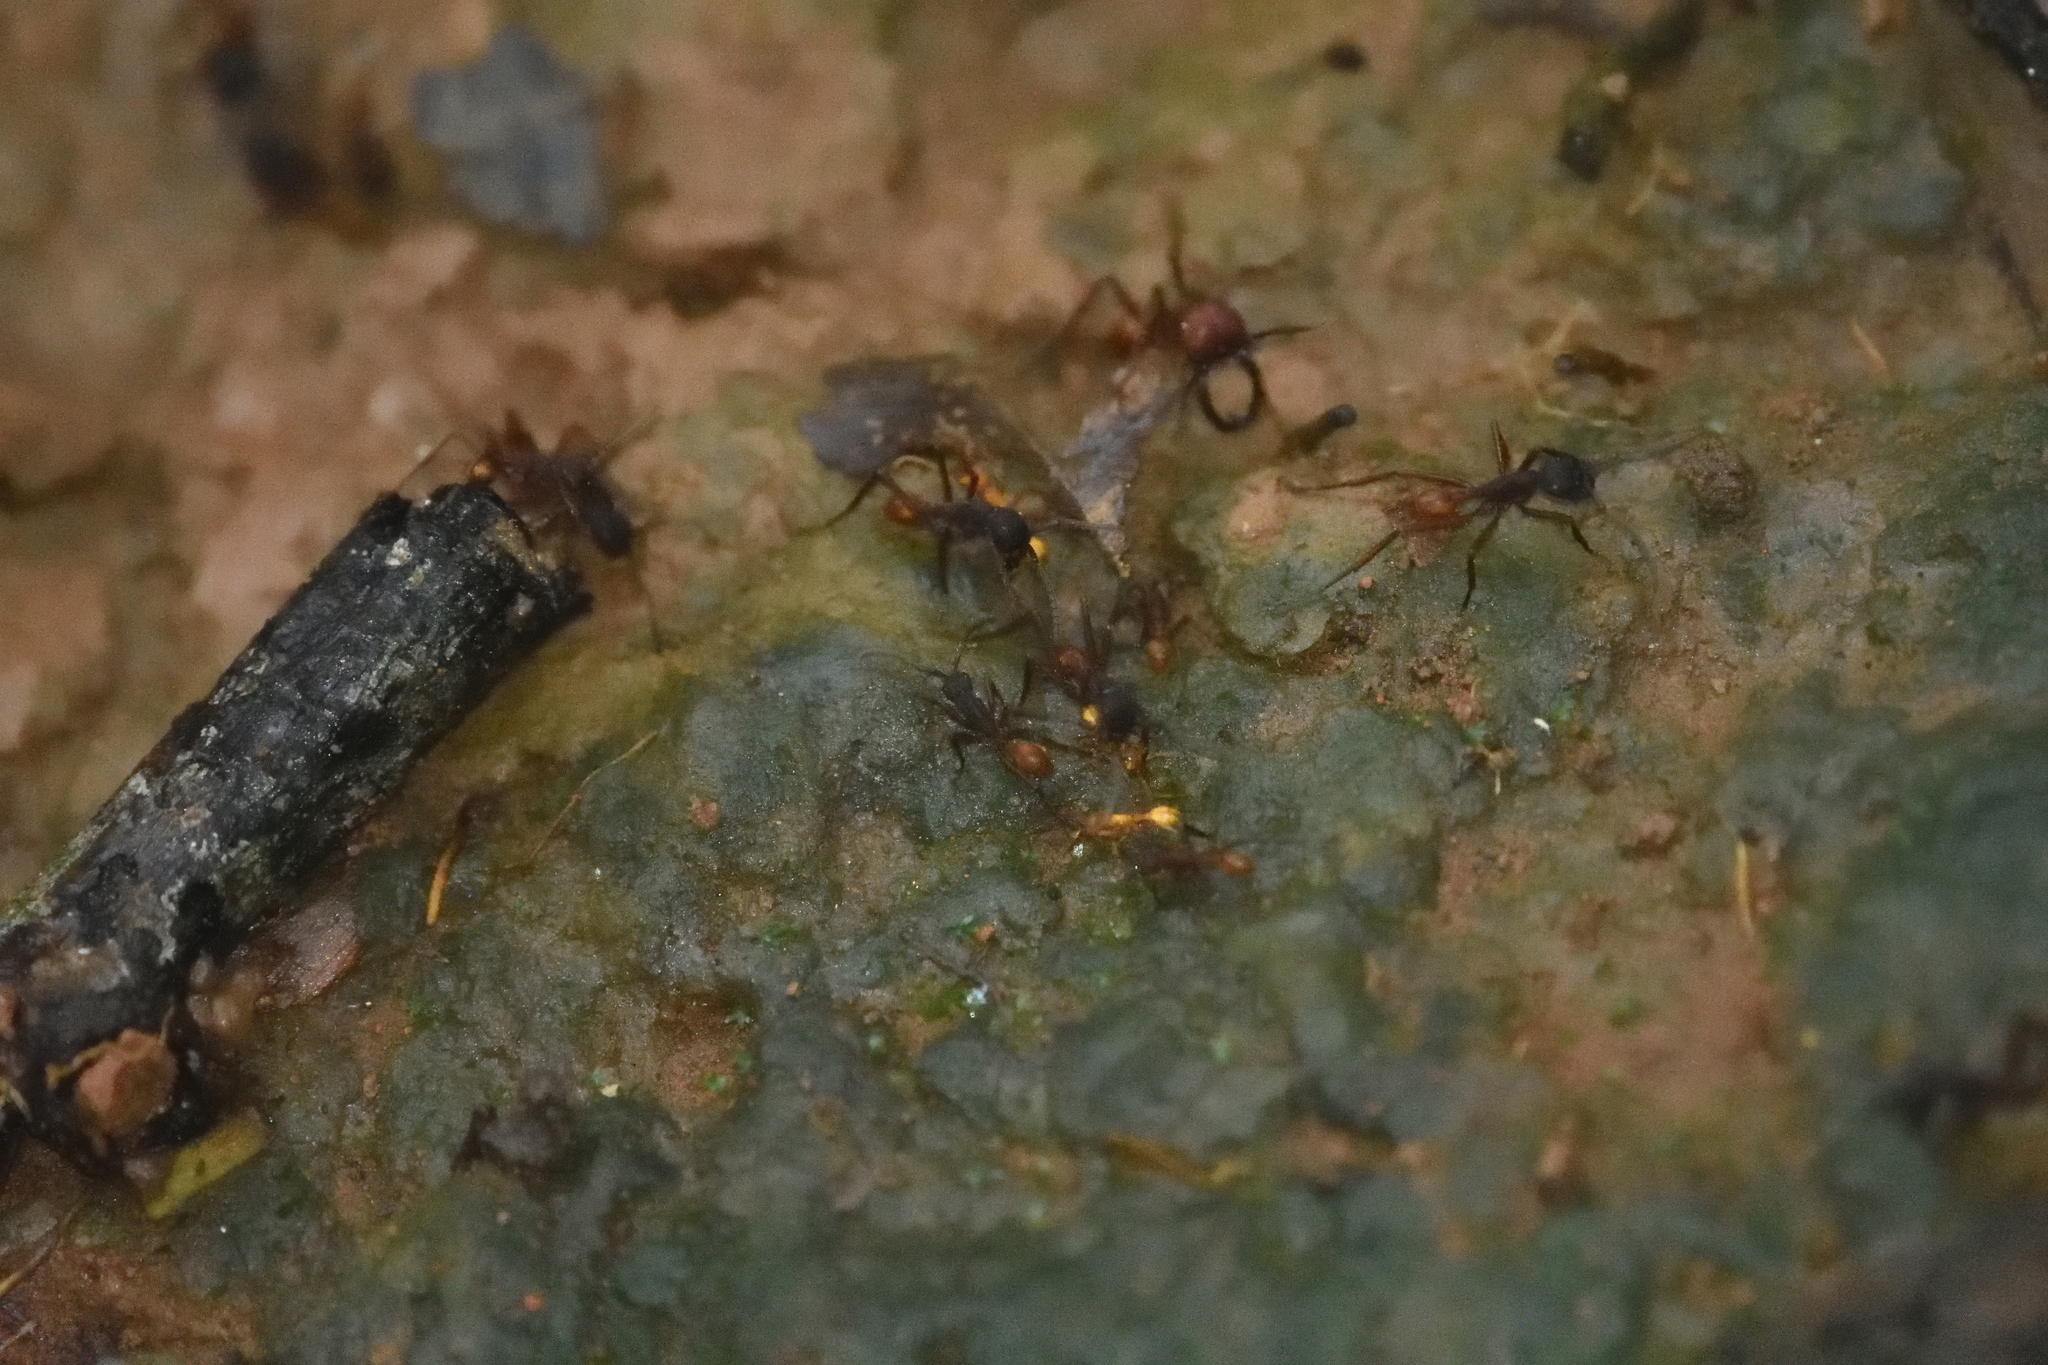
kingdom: Animalia
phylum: Arthropoda
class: Insecta
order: Hymenoptera
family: Formicidae
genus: Eciton
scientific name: Eciton
